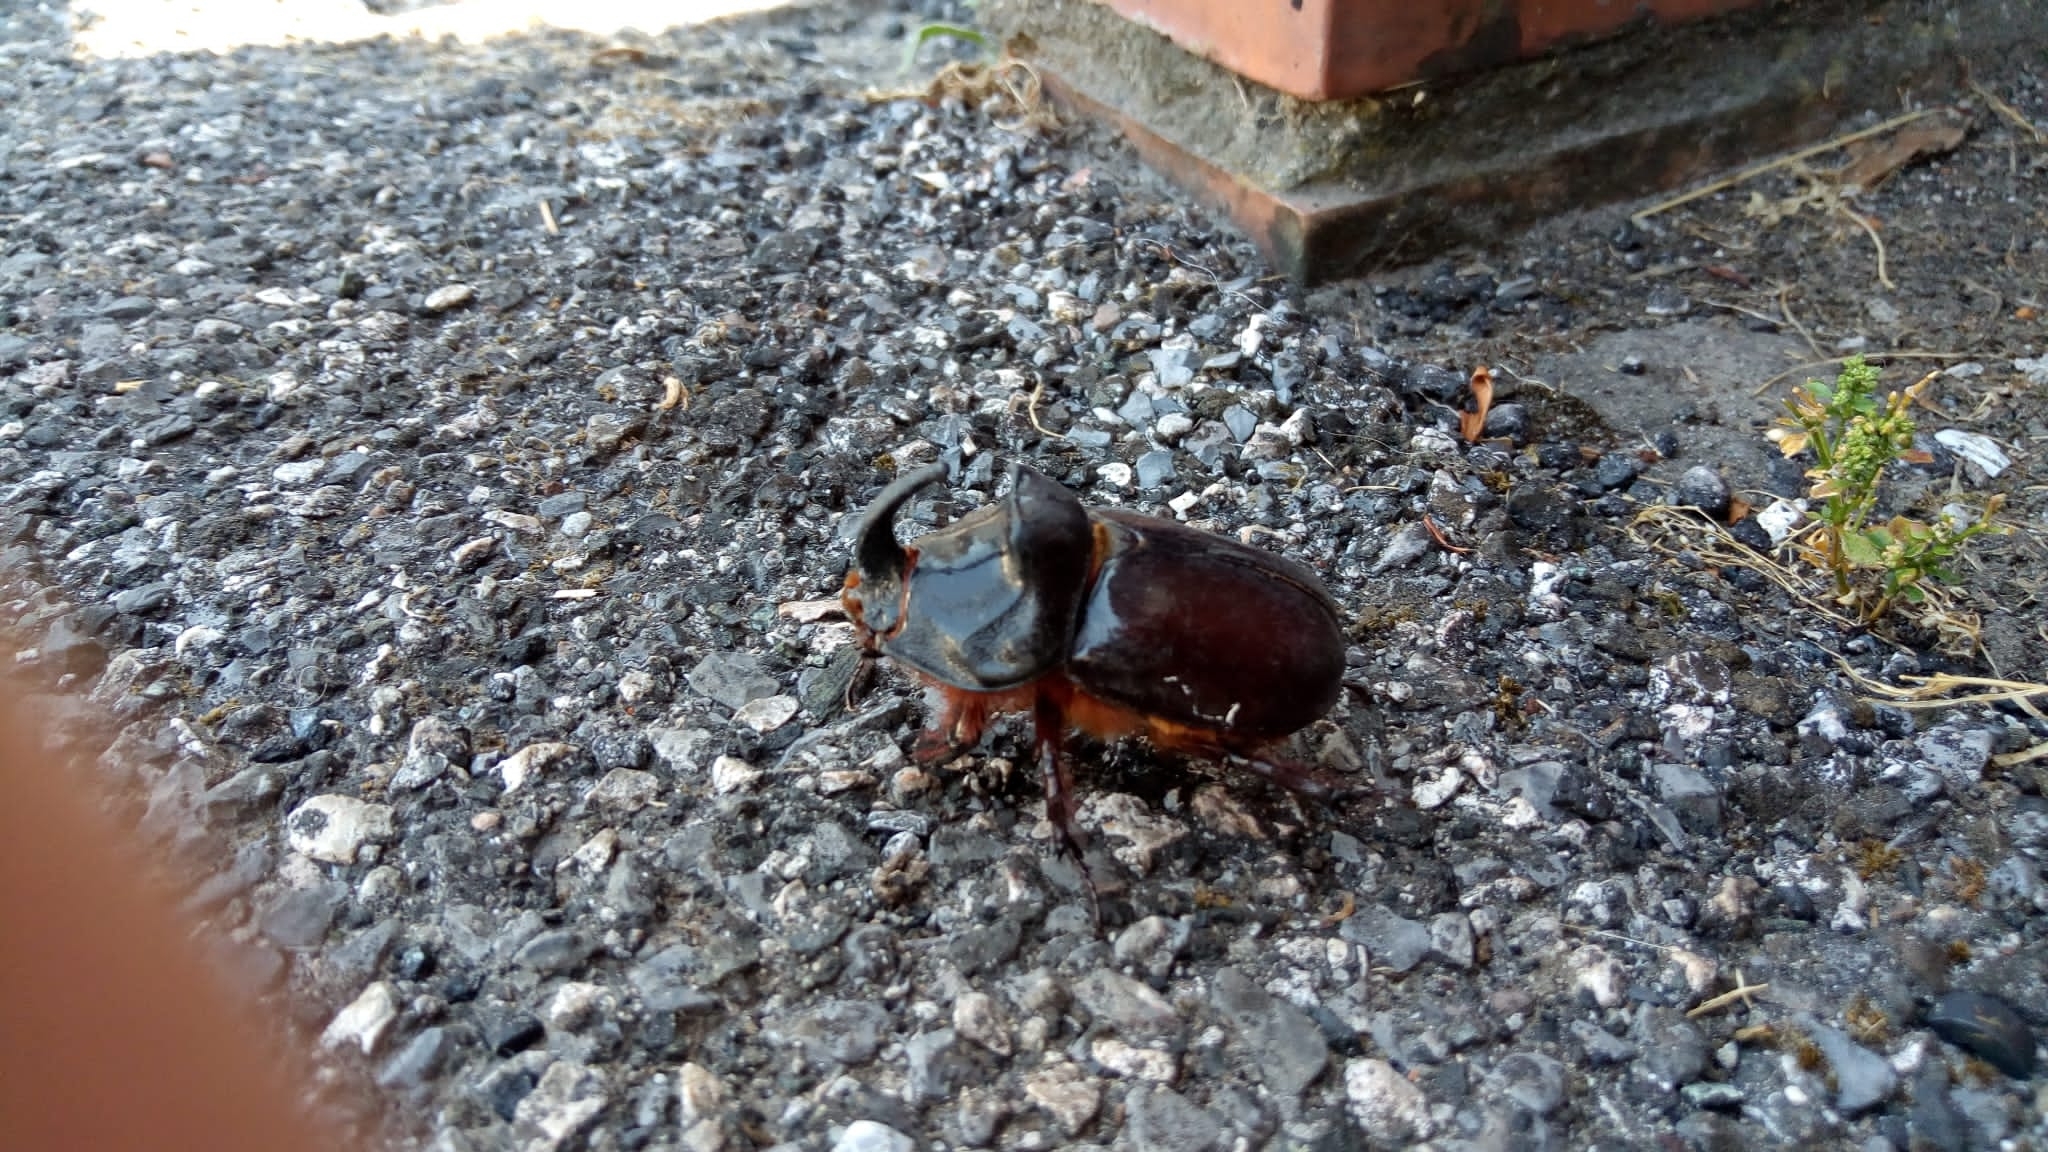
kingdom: Animalia
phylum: Arthropoda
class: Insecta
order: Coleoptera
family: Scarabaeidae
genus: Oryctes
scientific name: Oryctes nasicornis
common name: European rhinoceros beetle
